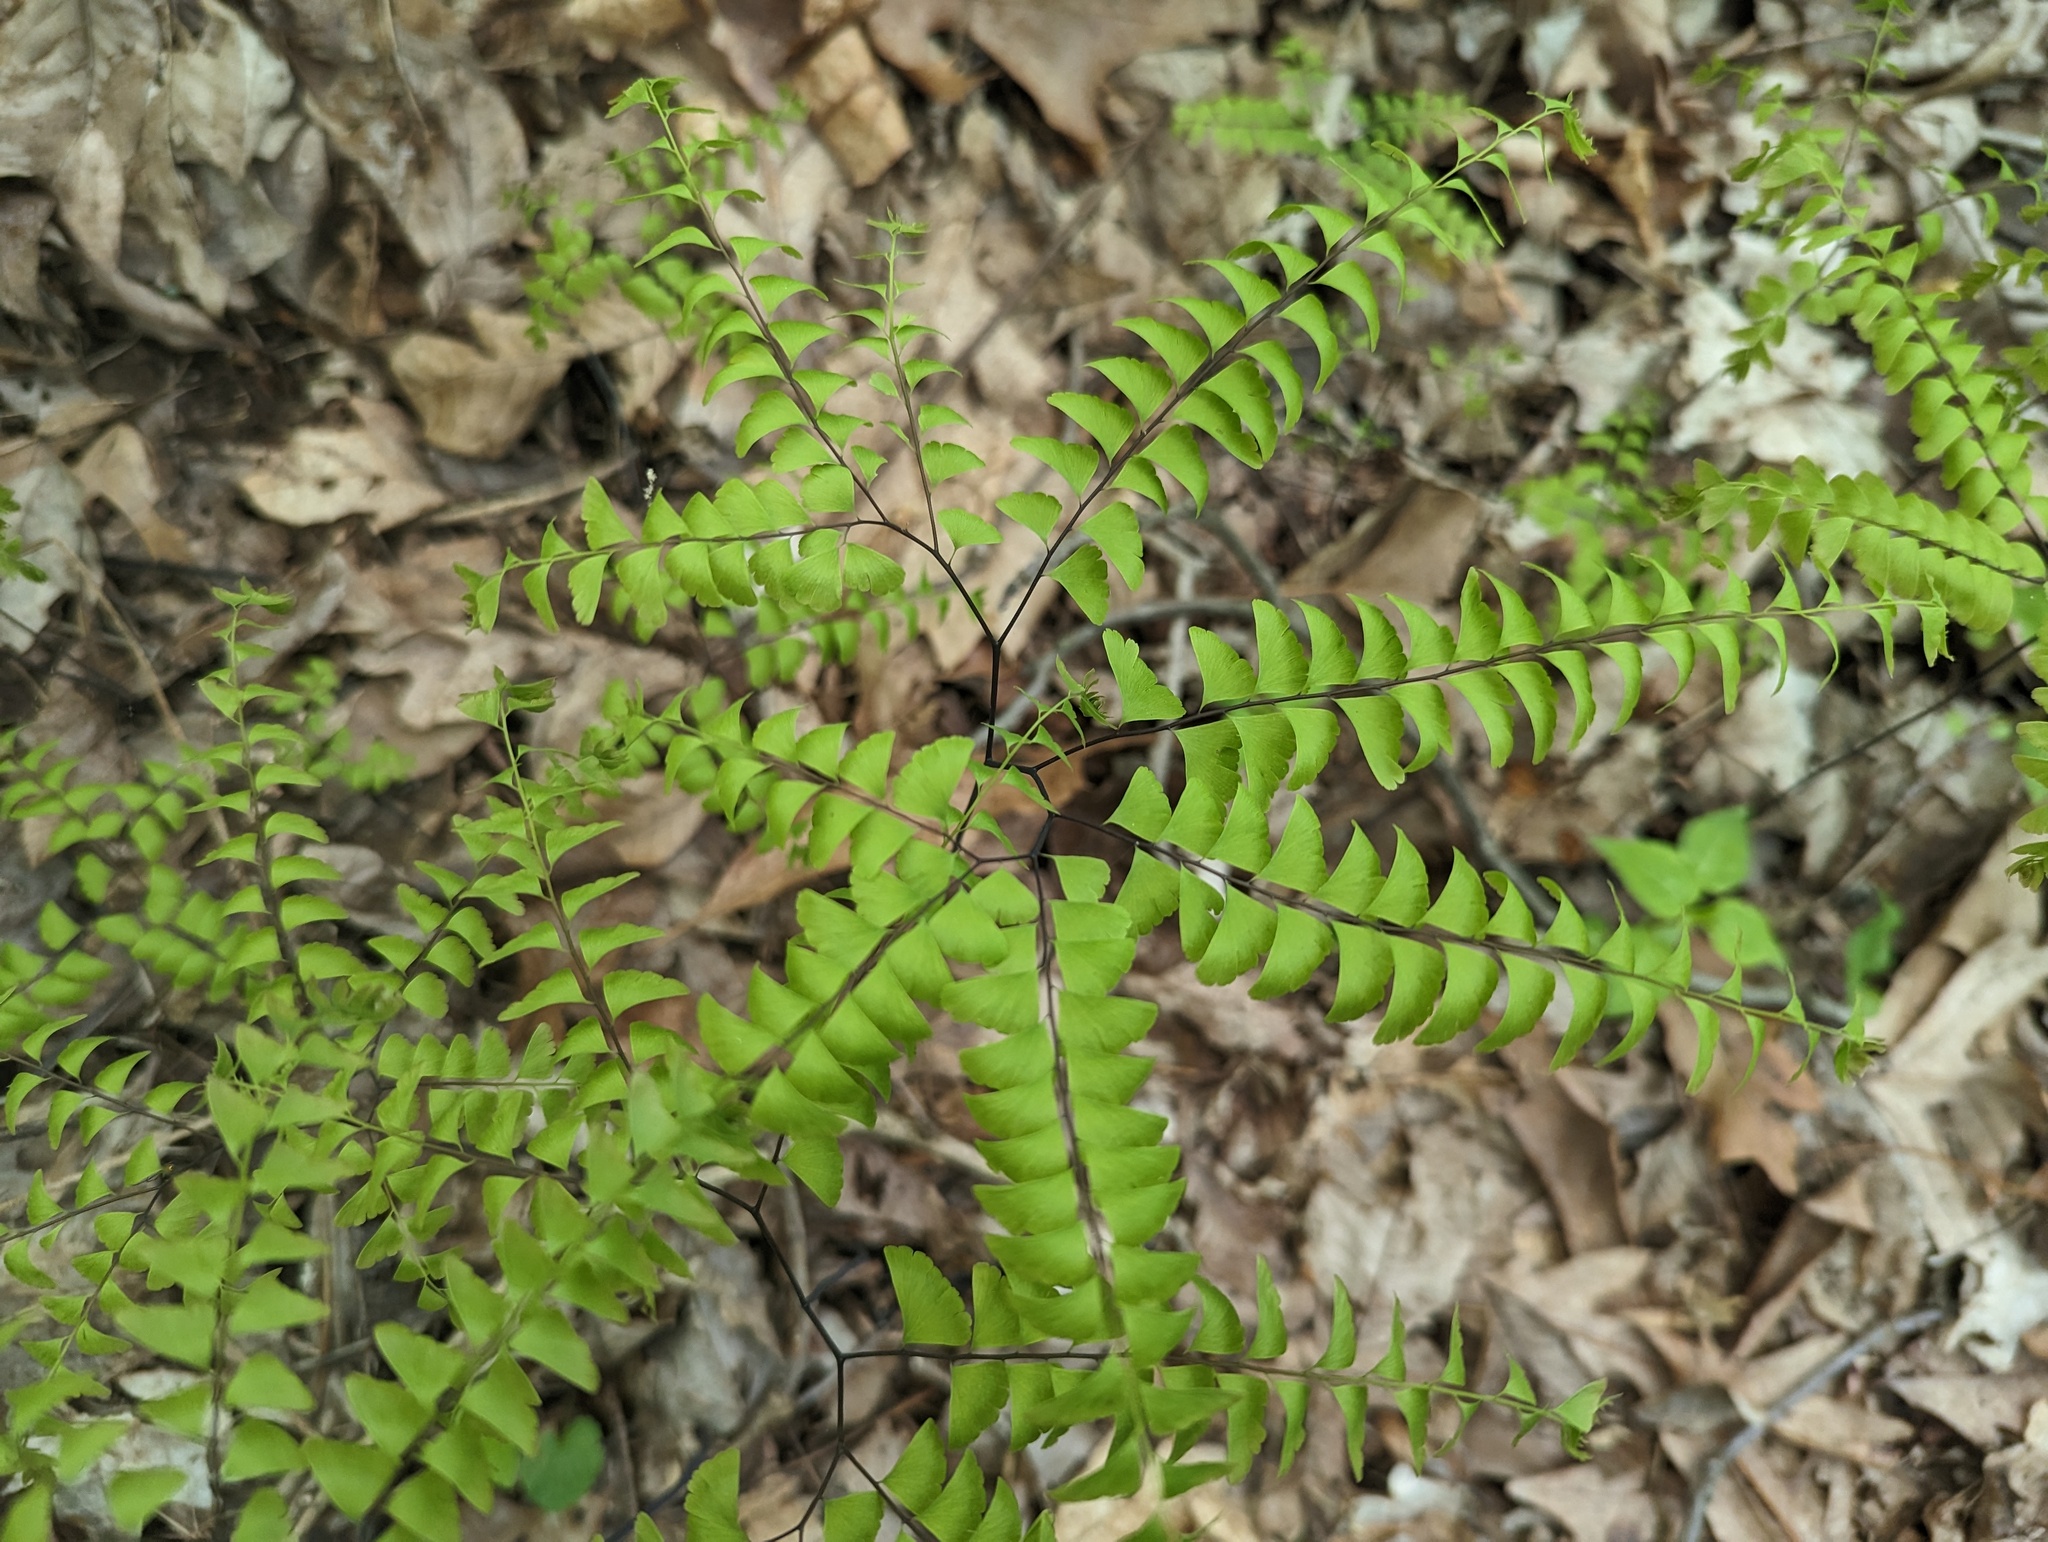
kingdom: Plantae
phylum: Tracheophyta
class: Polypodiopsida
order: Polypodiales
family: Pteridaceae
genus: Adiantum
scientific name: Adiantum pedatum
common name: Five-finger fern
